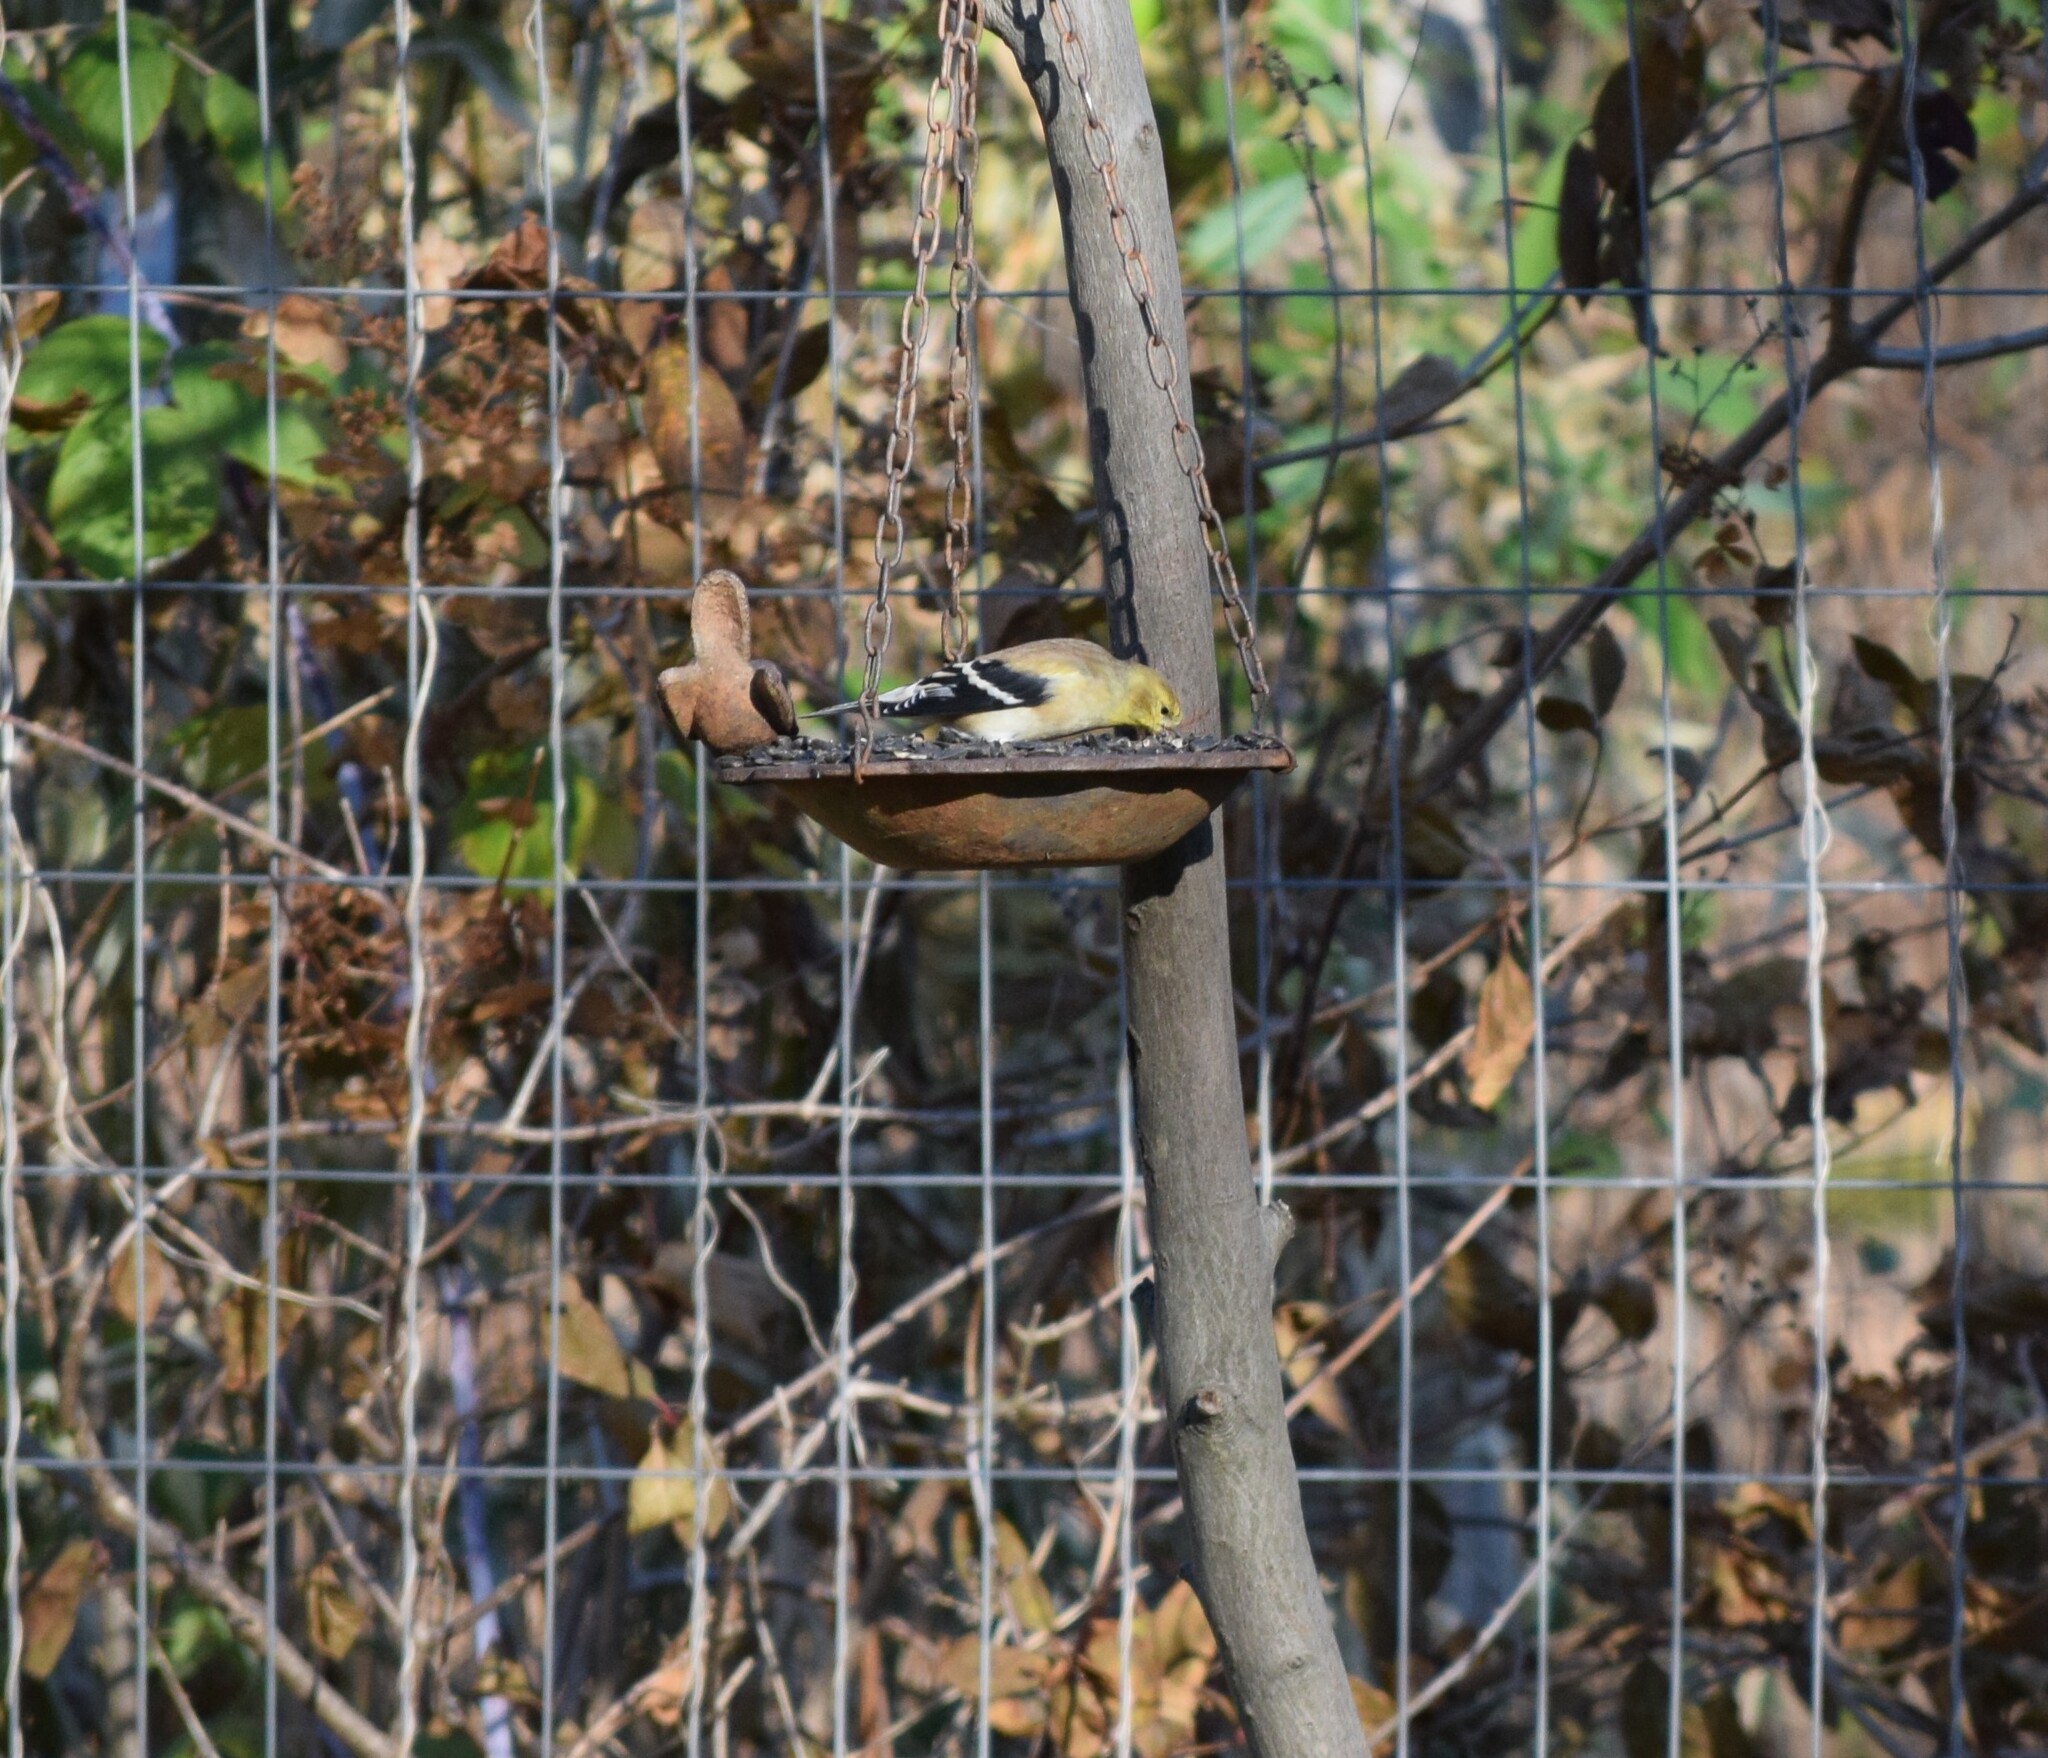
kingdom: Animalia
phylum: Chordata
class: Aves
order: Passeriformes
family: Fringillidae
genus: Spinus
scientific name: Spinus tristis
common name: American goldfinch
